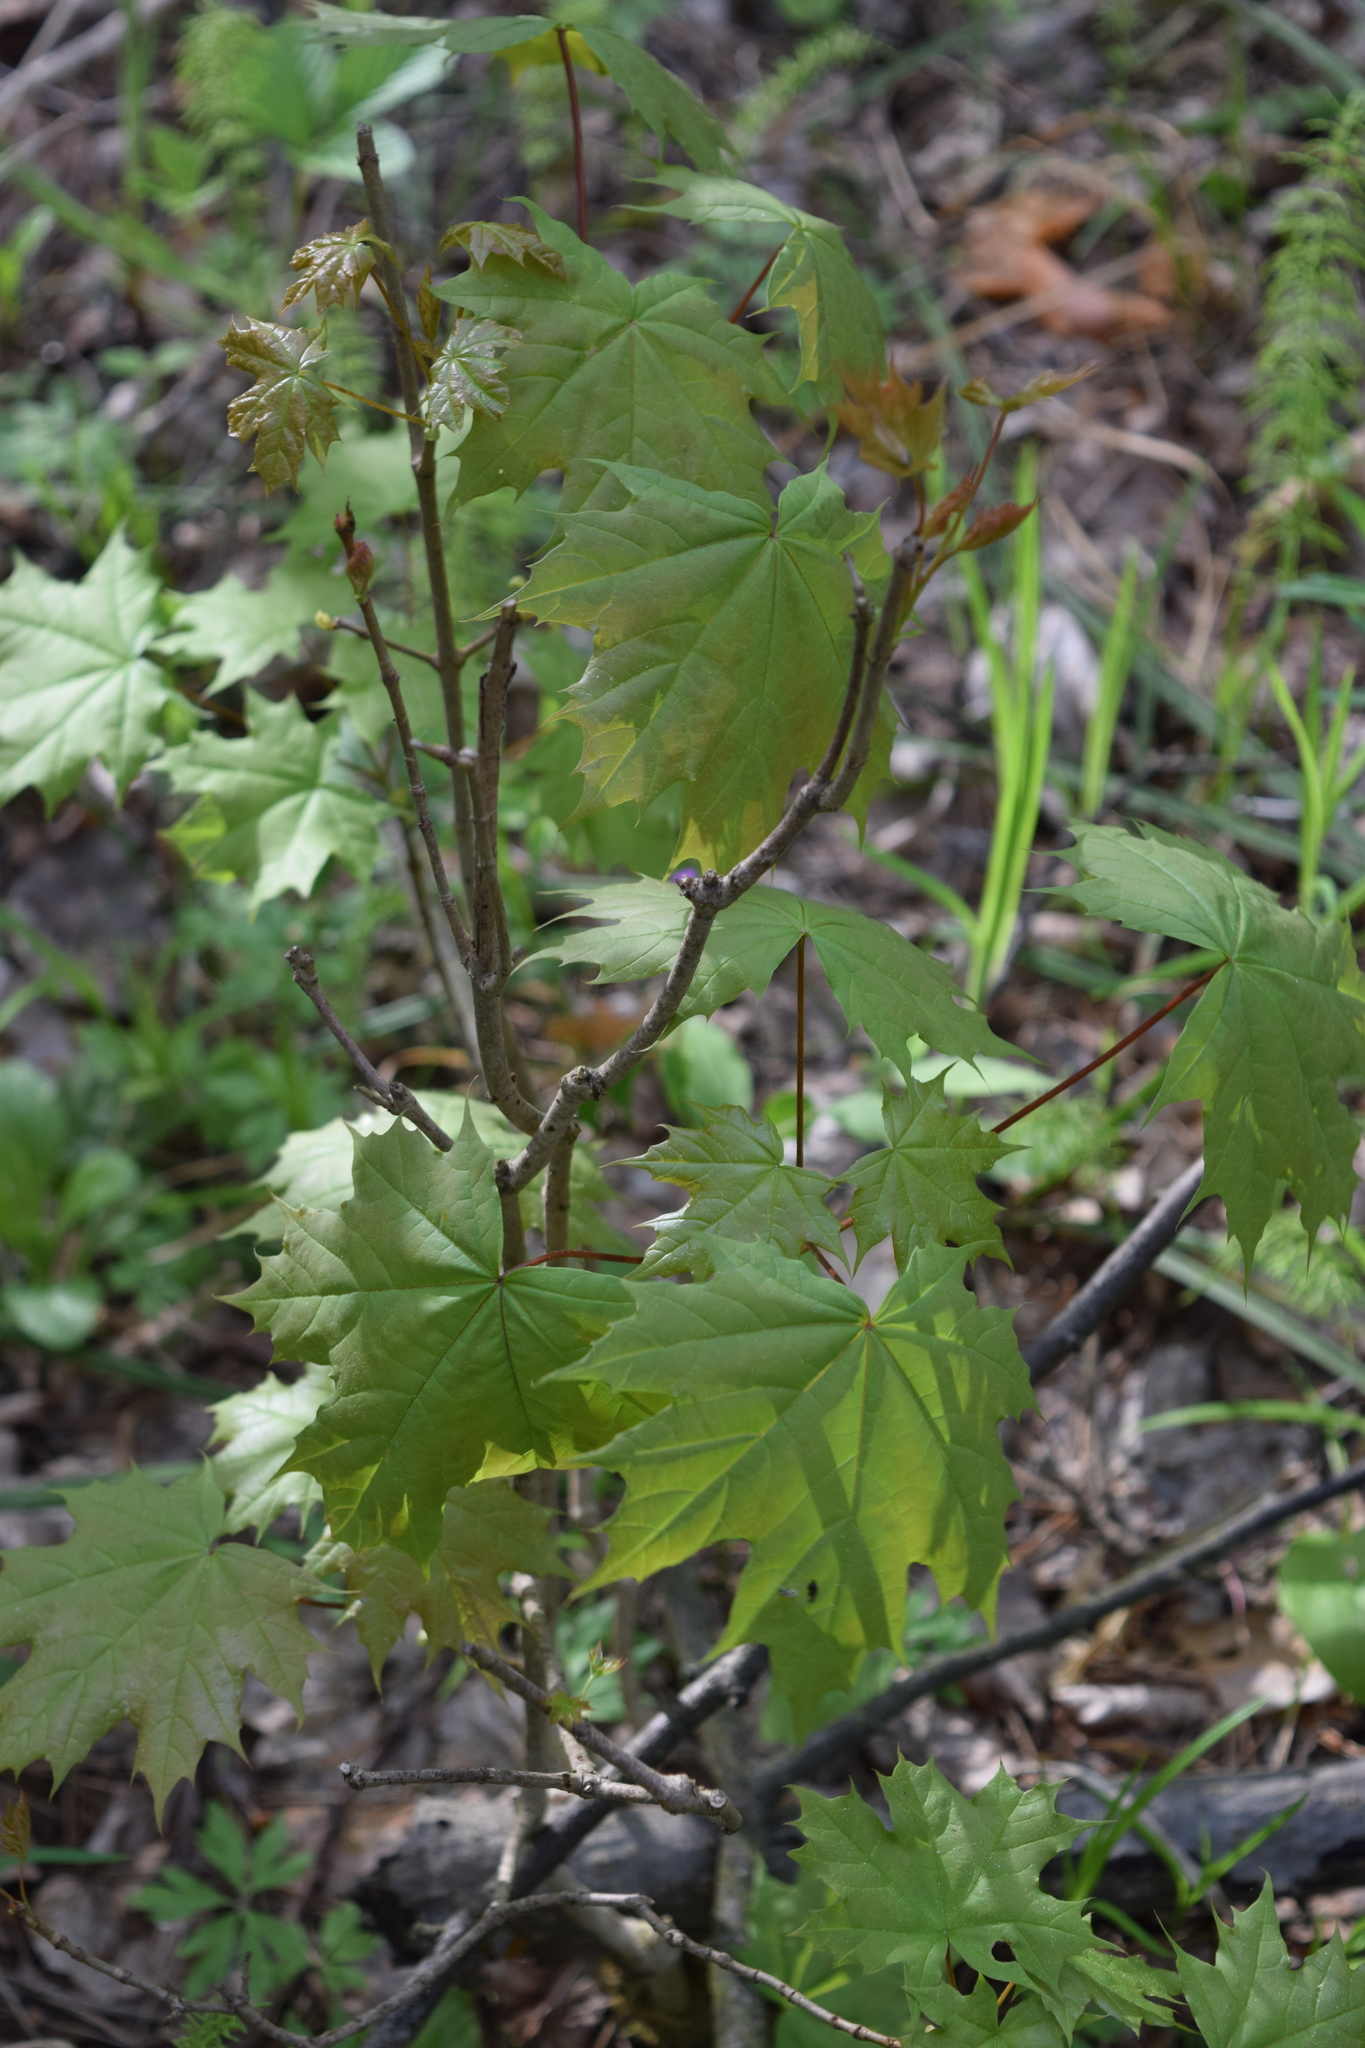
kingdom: Plantae
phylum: Tracheophyta
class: Magnoliopsida
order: Sapindales
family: Sapindaceae
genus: Acer
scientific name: Acer platanoides
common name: Norway maple
